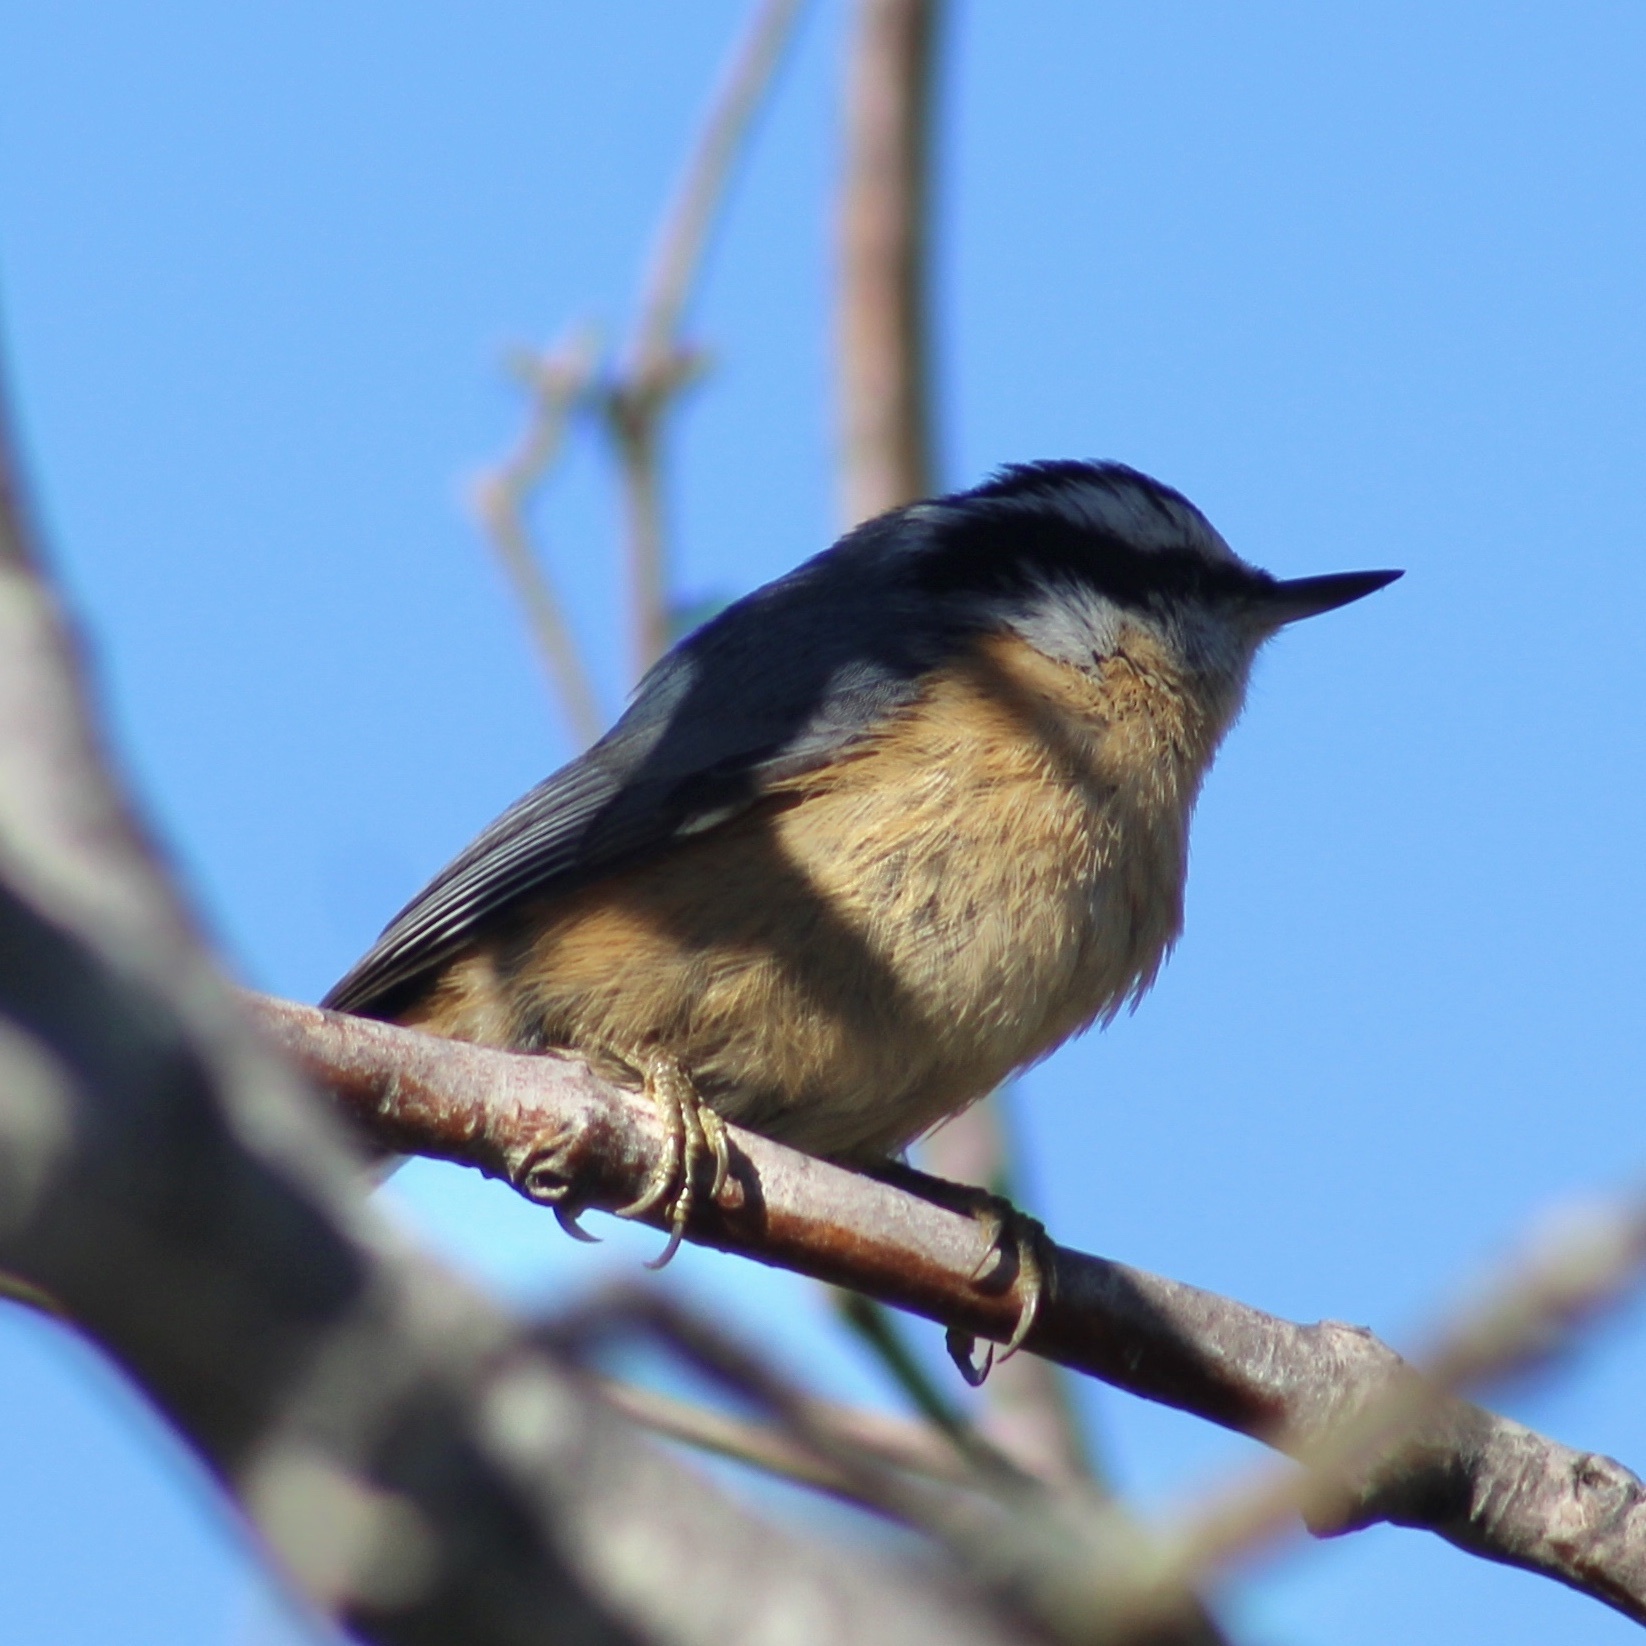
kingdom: Animalia
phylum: Chordata
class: Aves
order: Passeriformes
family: Sittidae
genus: Sitta
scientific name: Sitta canadensis
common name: Red-breasted nuthatch
